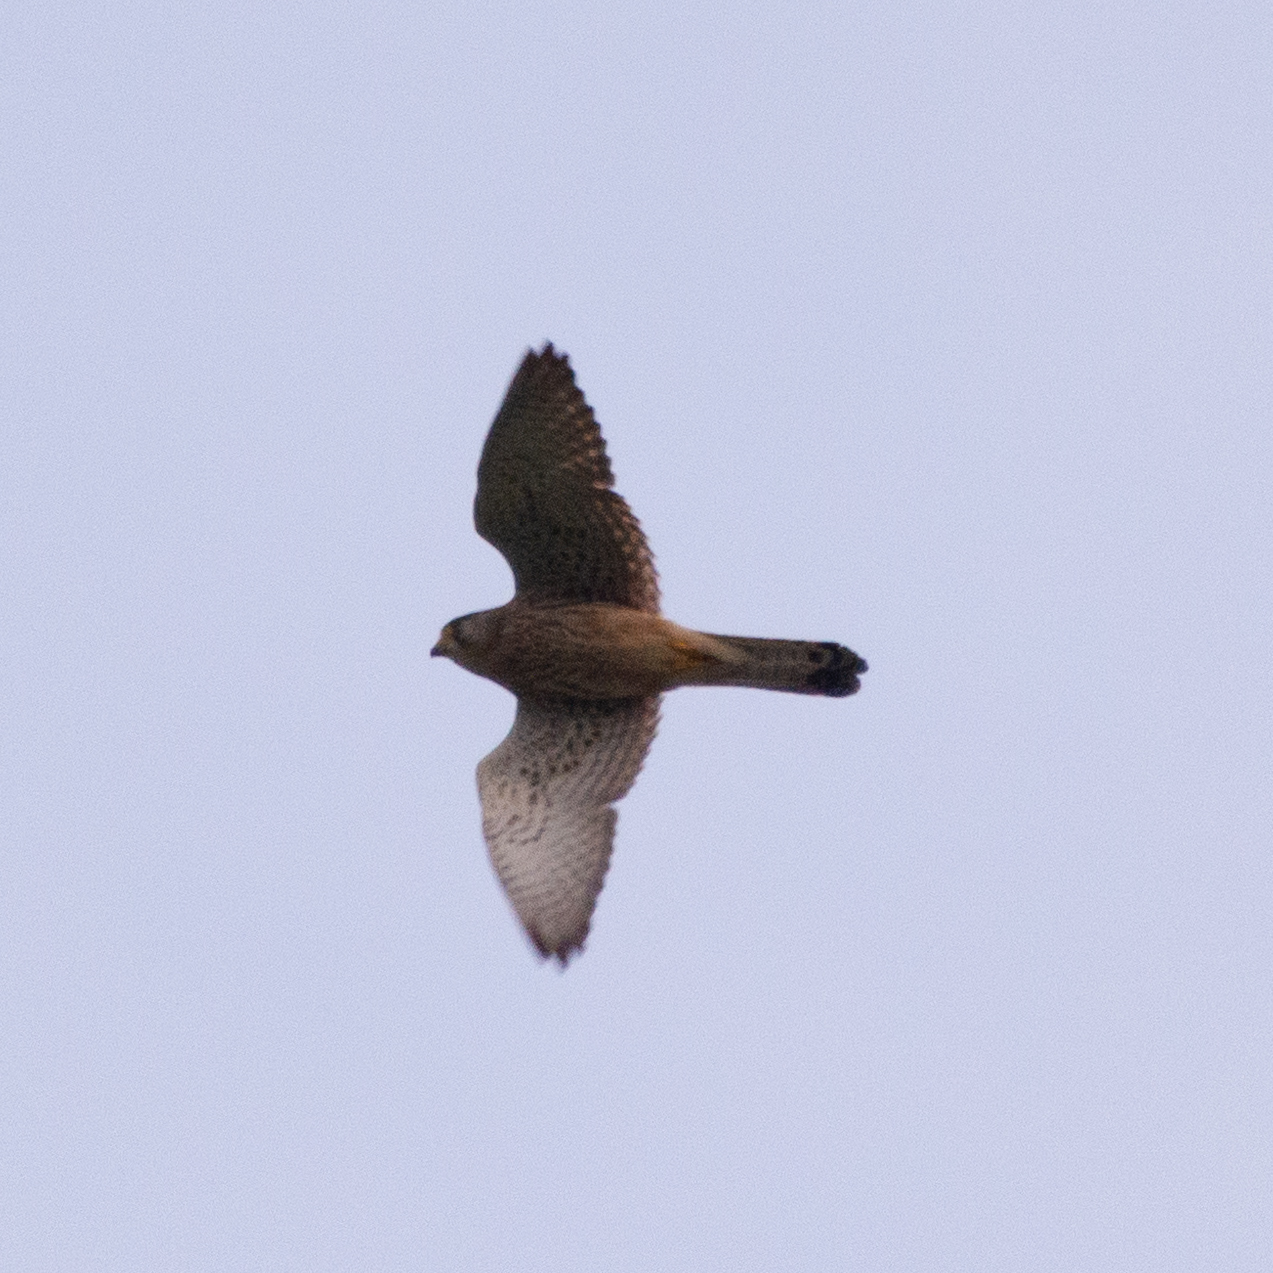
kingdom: Animalia
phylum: Chordata
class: Aves
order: Falconiformes
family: Falconidae
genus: Falco
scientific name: Falco tinnunculus
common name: Common kestrel
